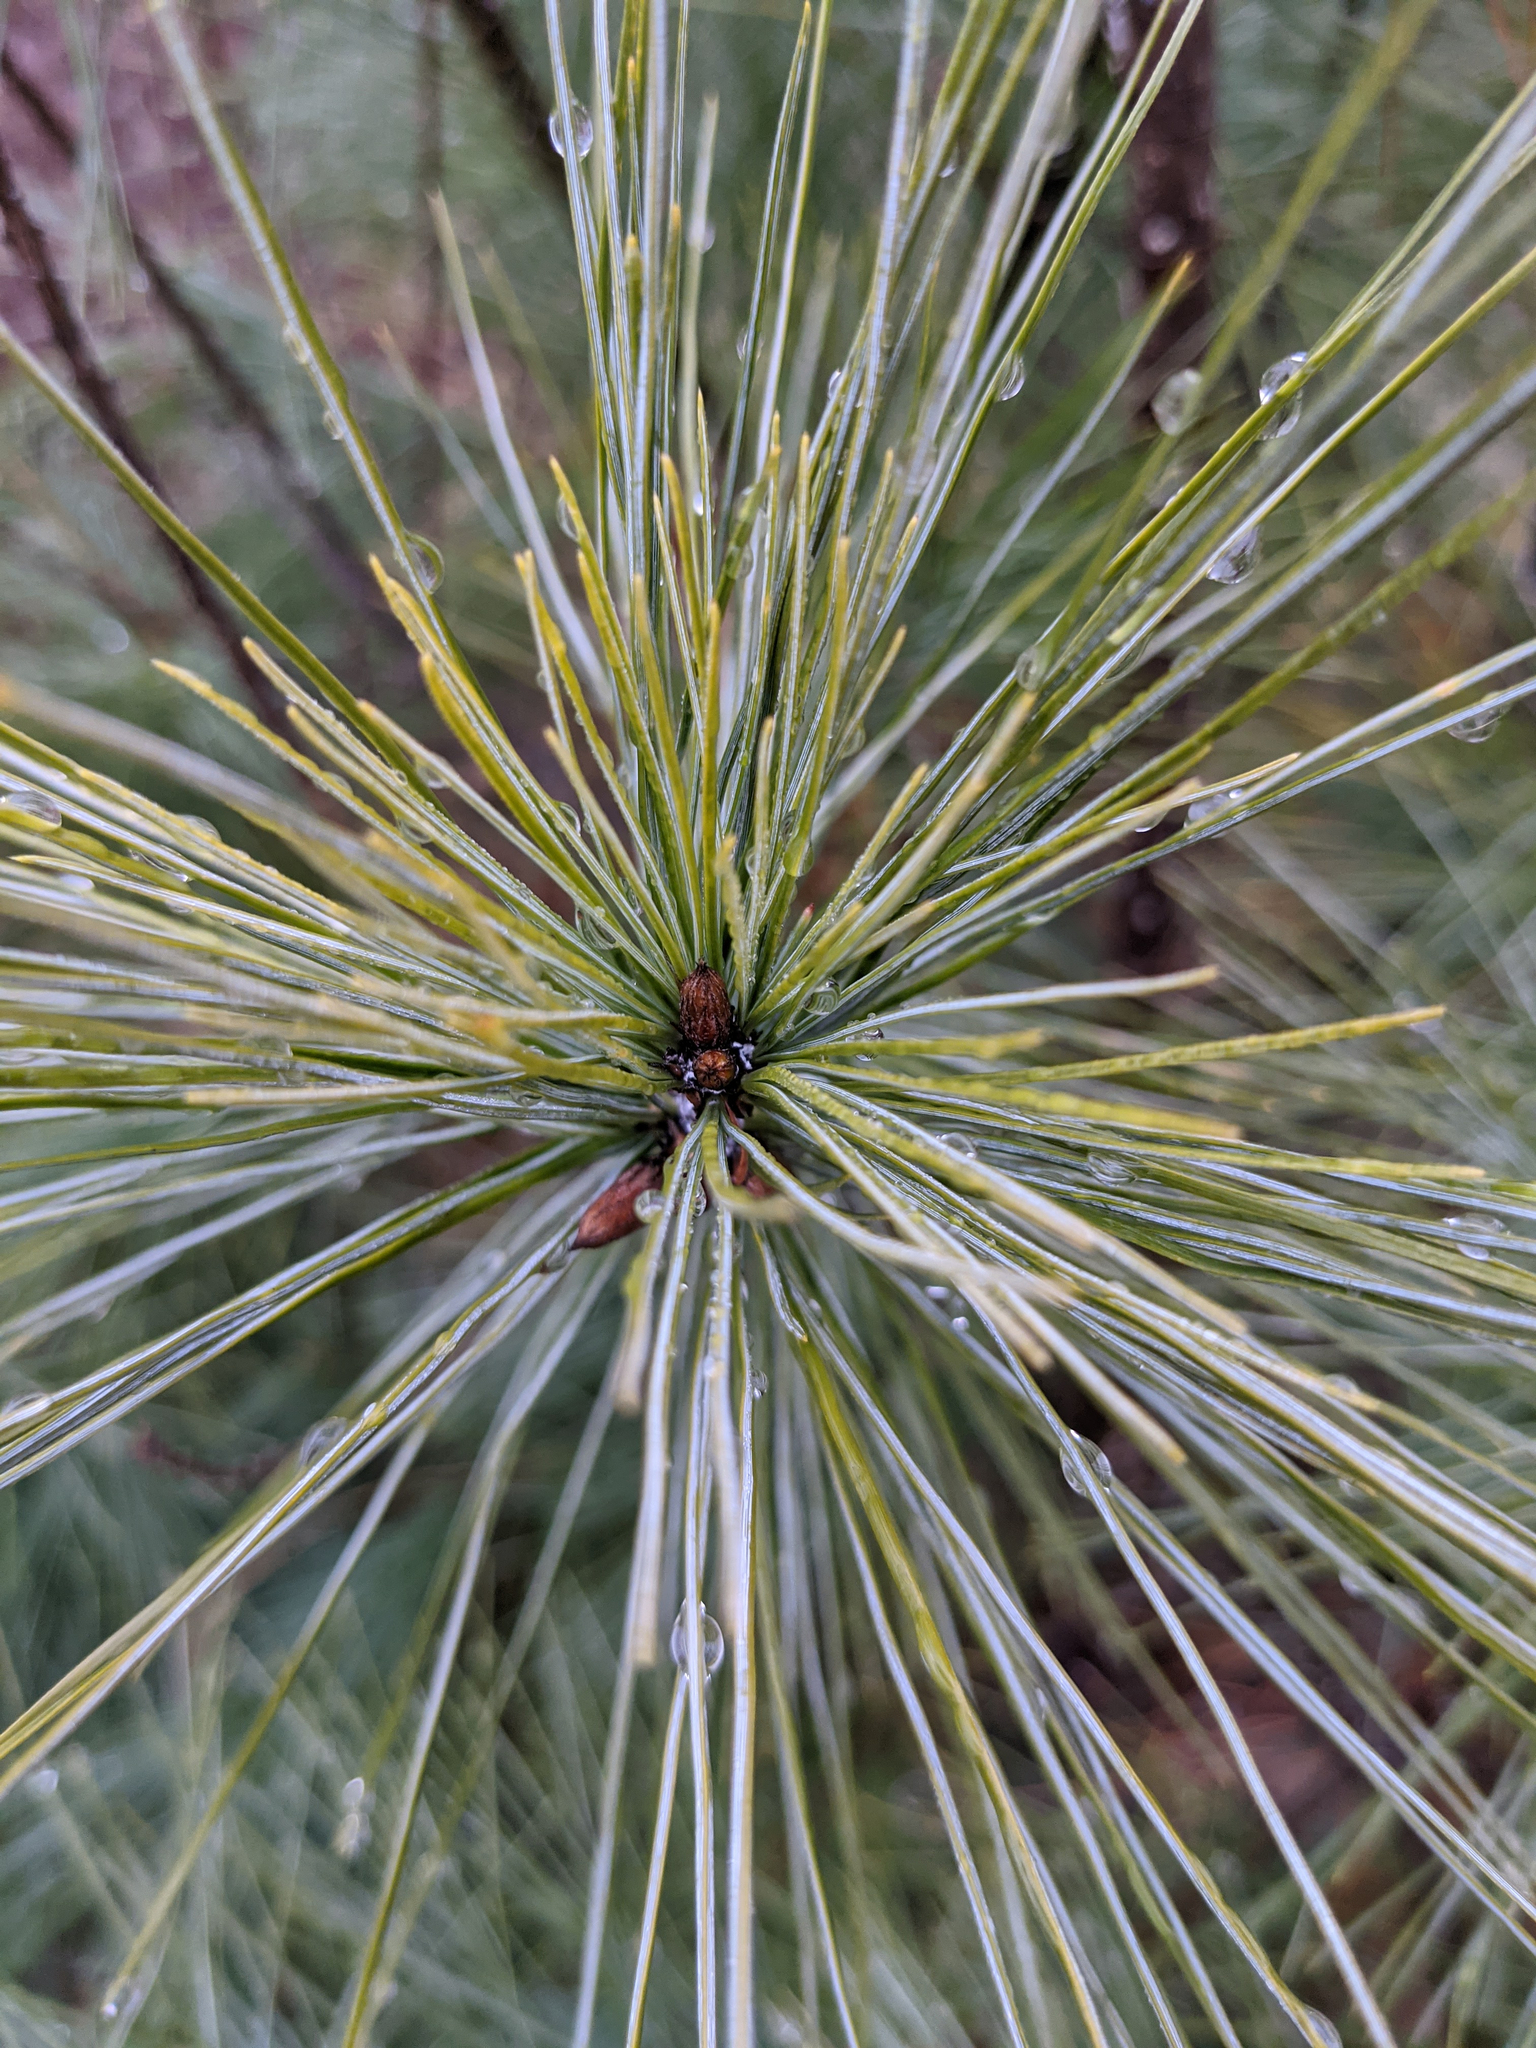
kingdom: Plantae
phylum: Tracheophyta
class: Pinopsida
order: Pinales
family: Pinaceae
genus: Pinus
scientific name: Pinus strobus
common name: Weymouth pine
